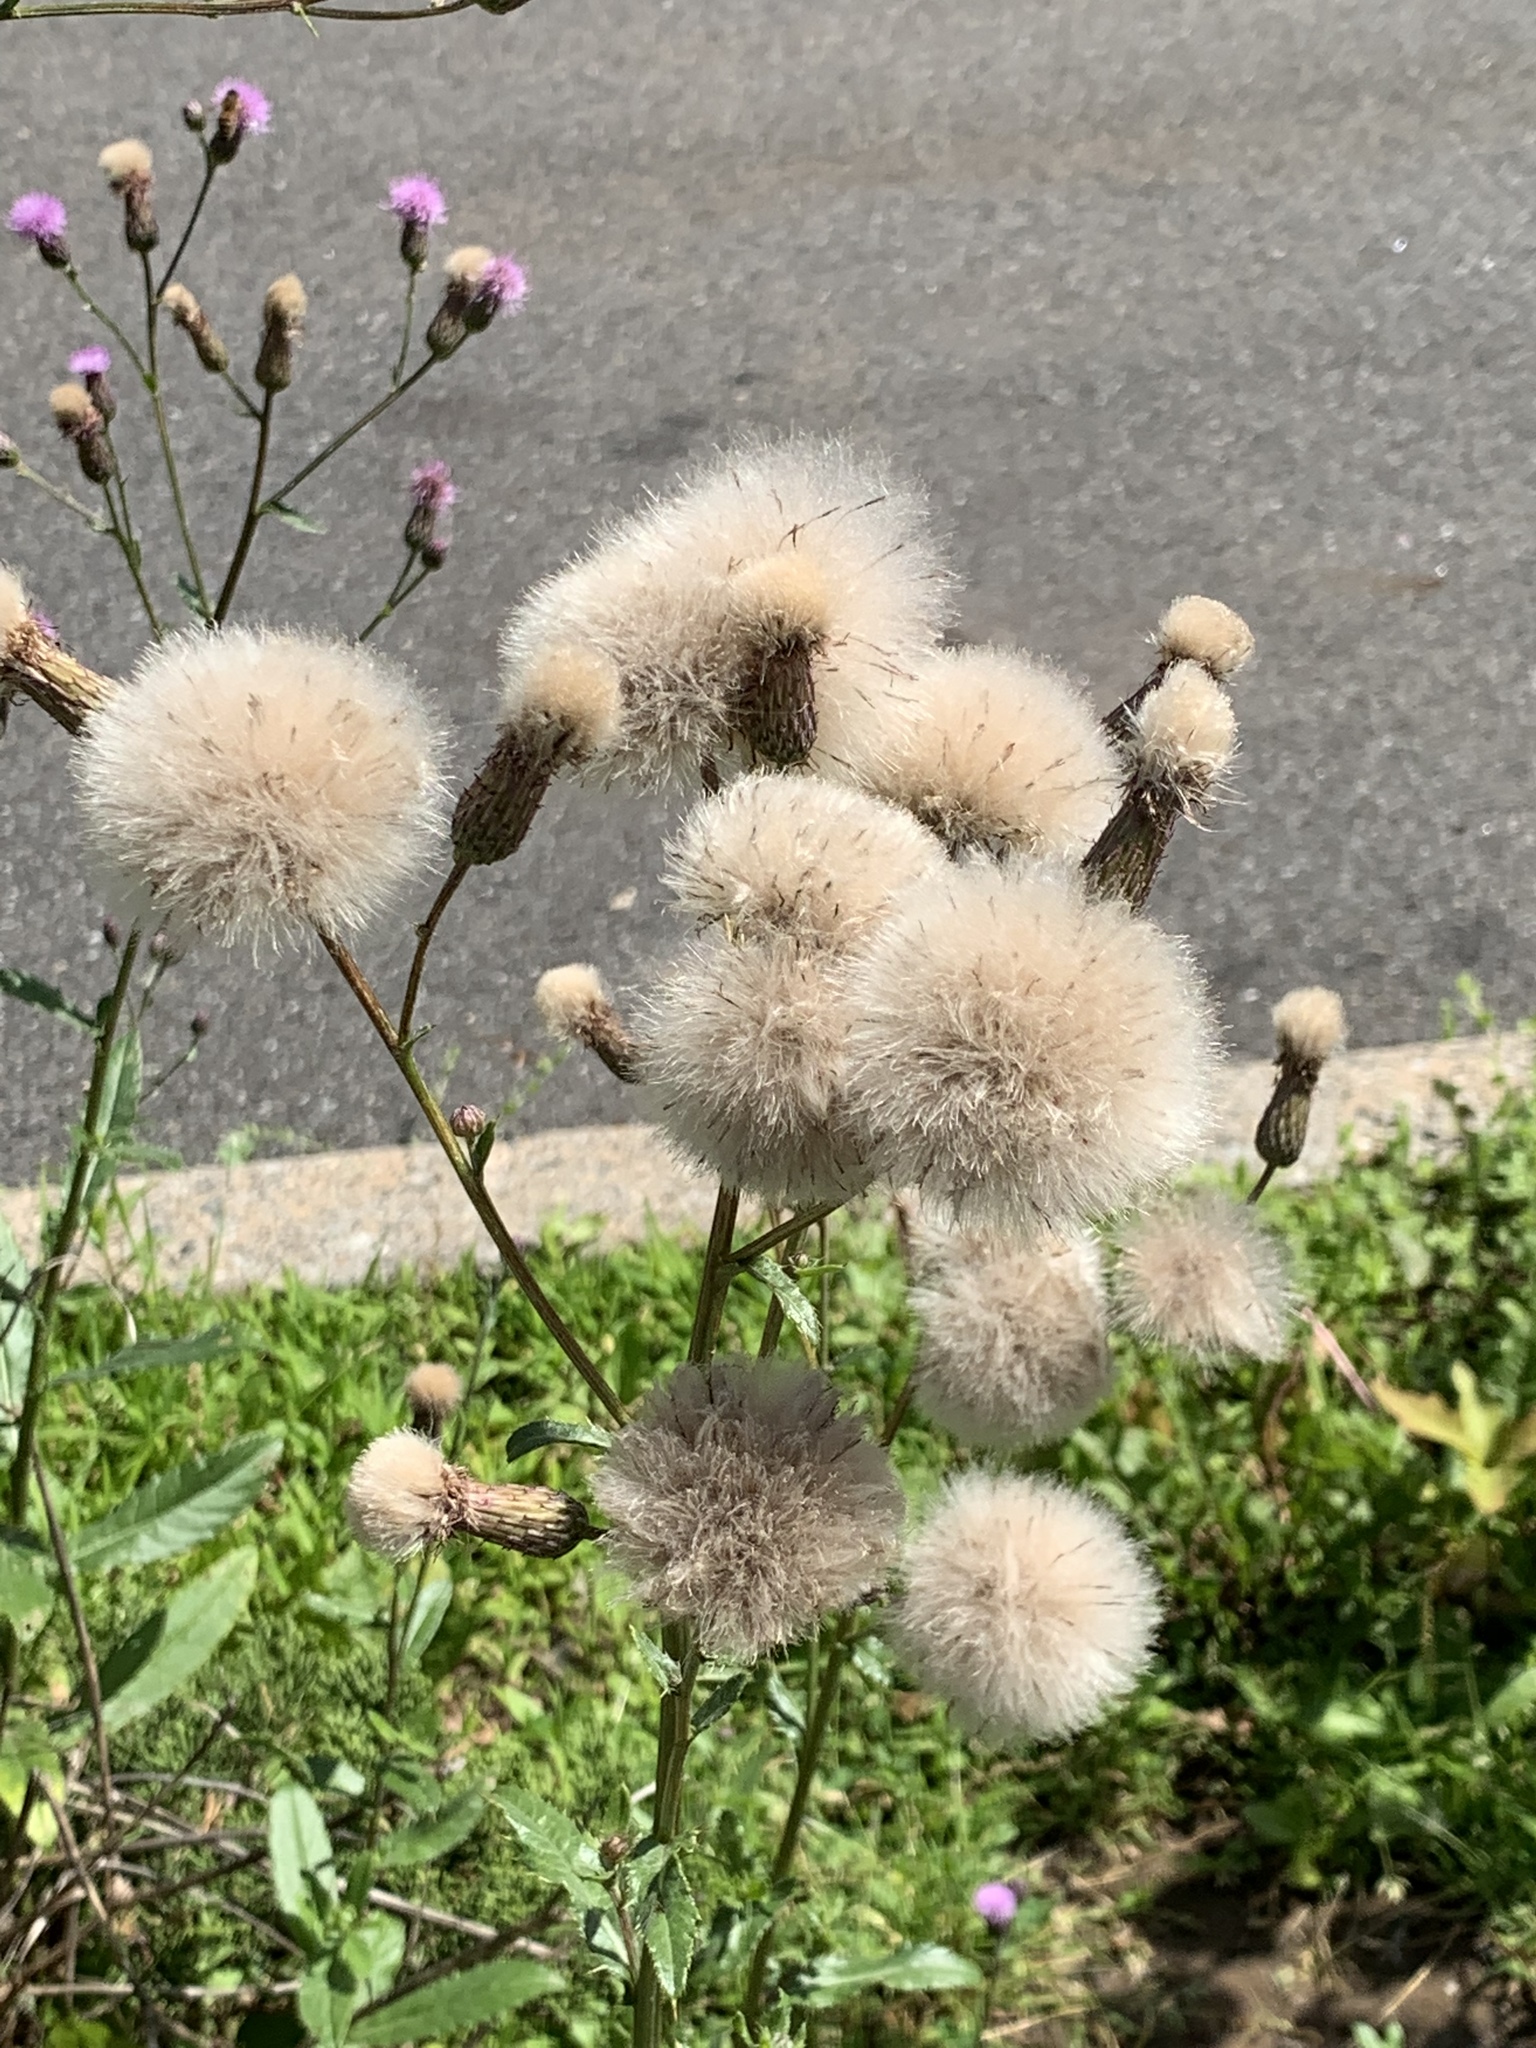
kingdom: Plantae
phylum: Tracheophyta
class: Magnoliopsida
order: Asterales
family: Asteraceae
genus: Cirsium
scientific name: Cirsium arvense
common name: Creeping thistle
